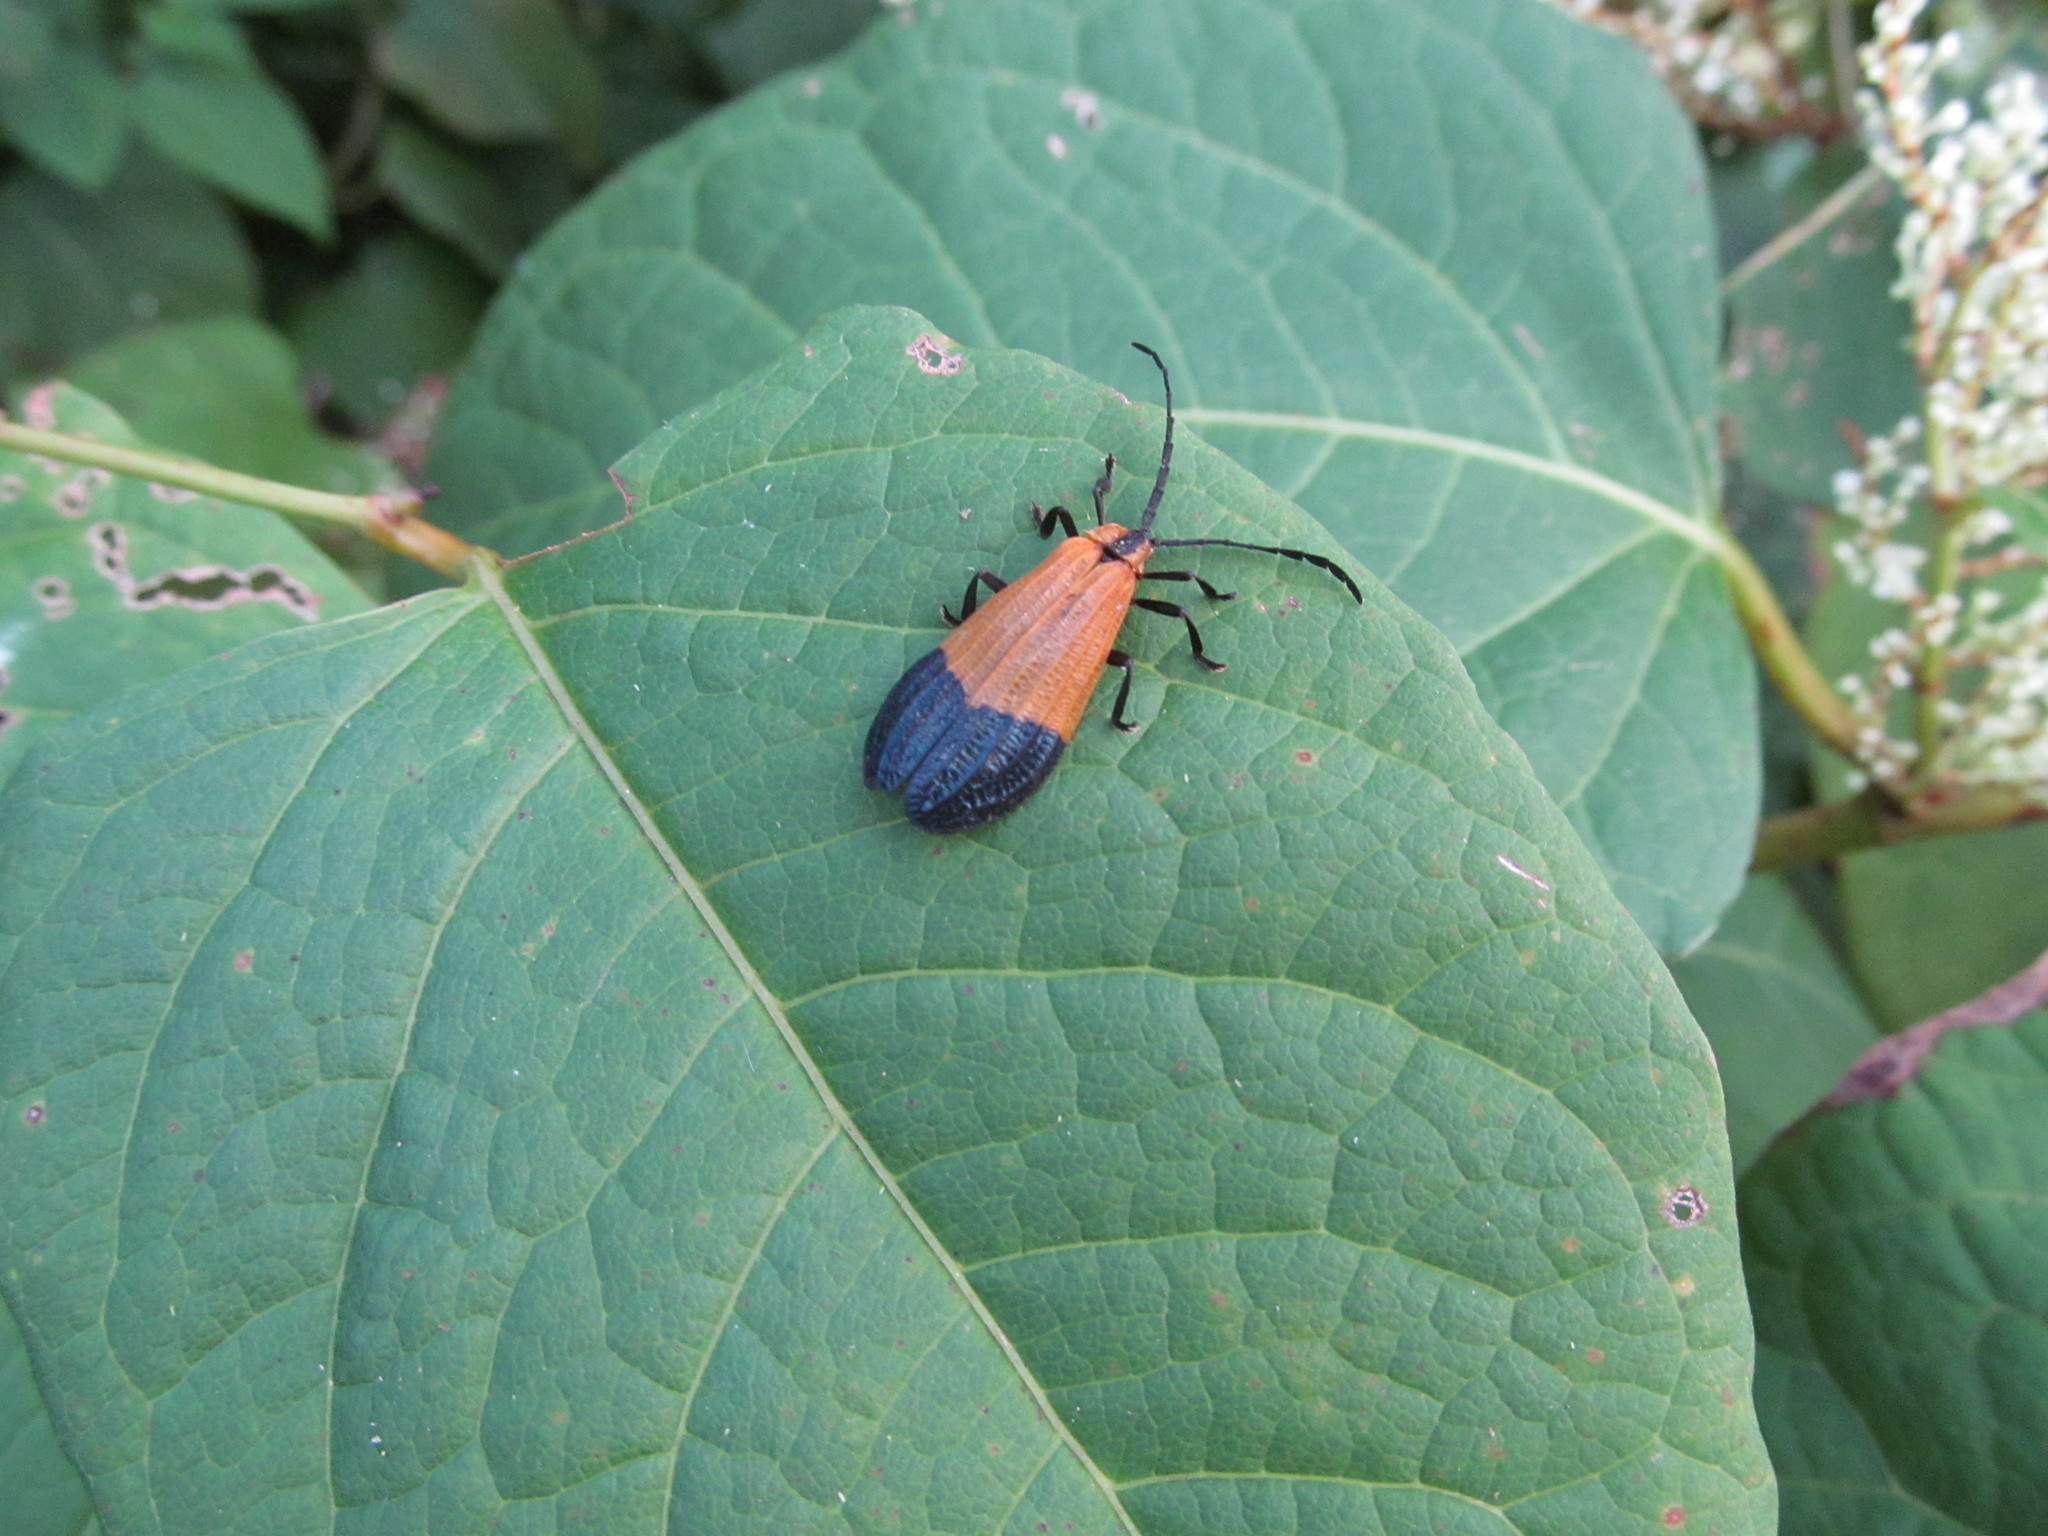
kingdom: Animalia
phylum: Arthropoda
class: Insecta
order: Coleoptera
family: Lycidae
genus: Calopteron
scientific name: Calopteron terminale
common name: End band net-winged beetle
